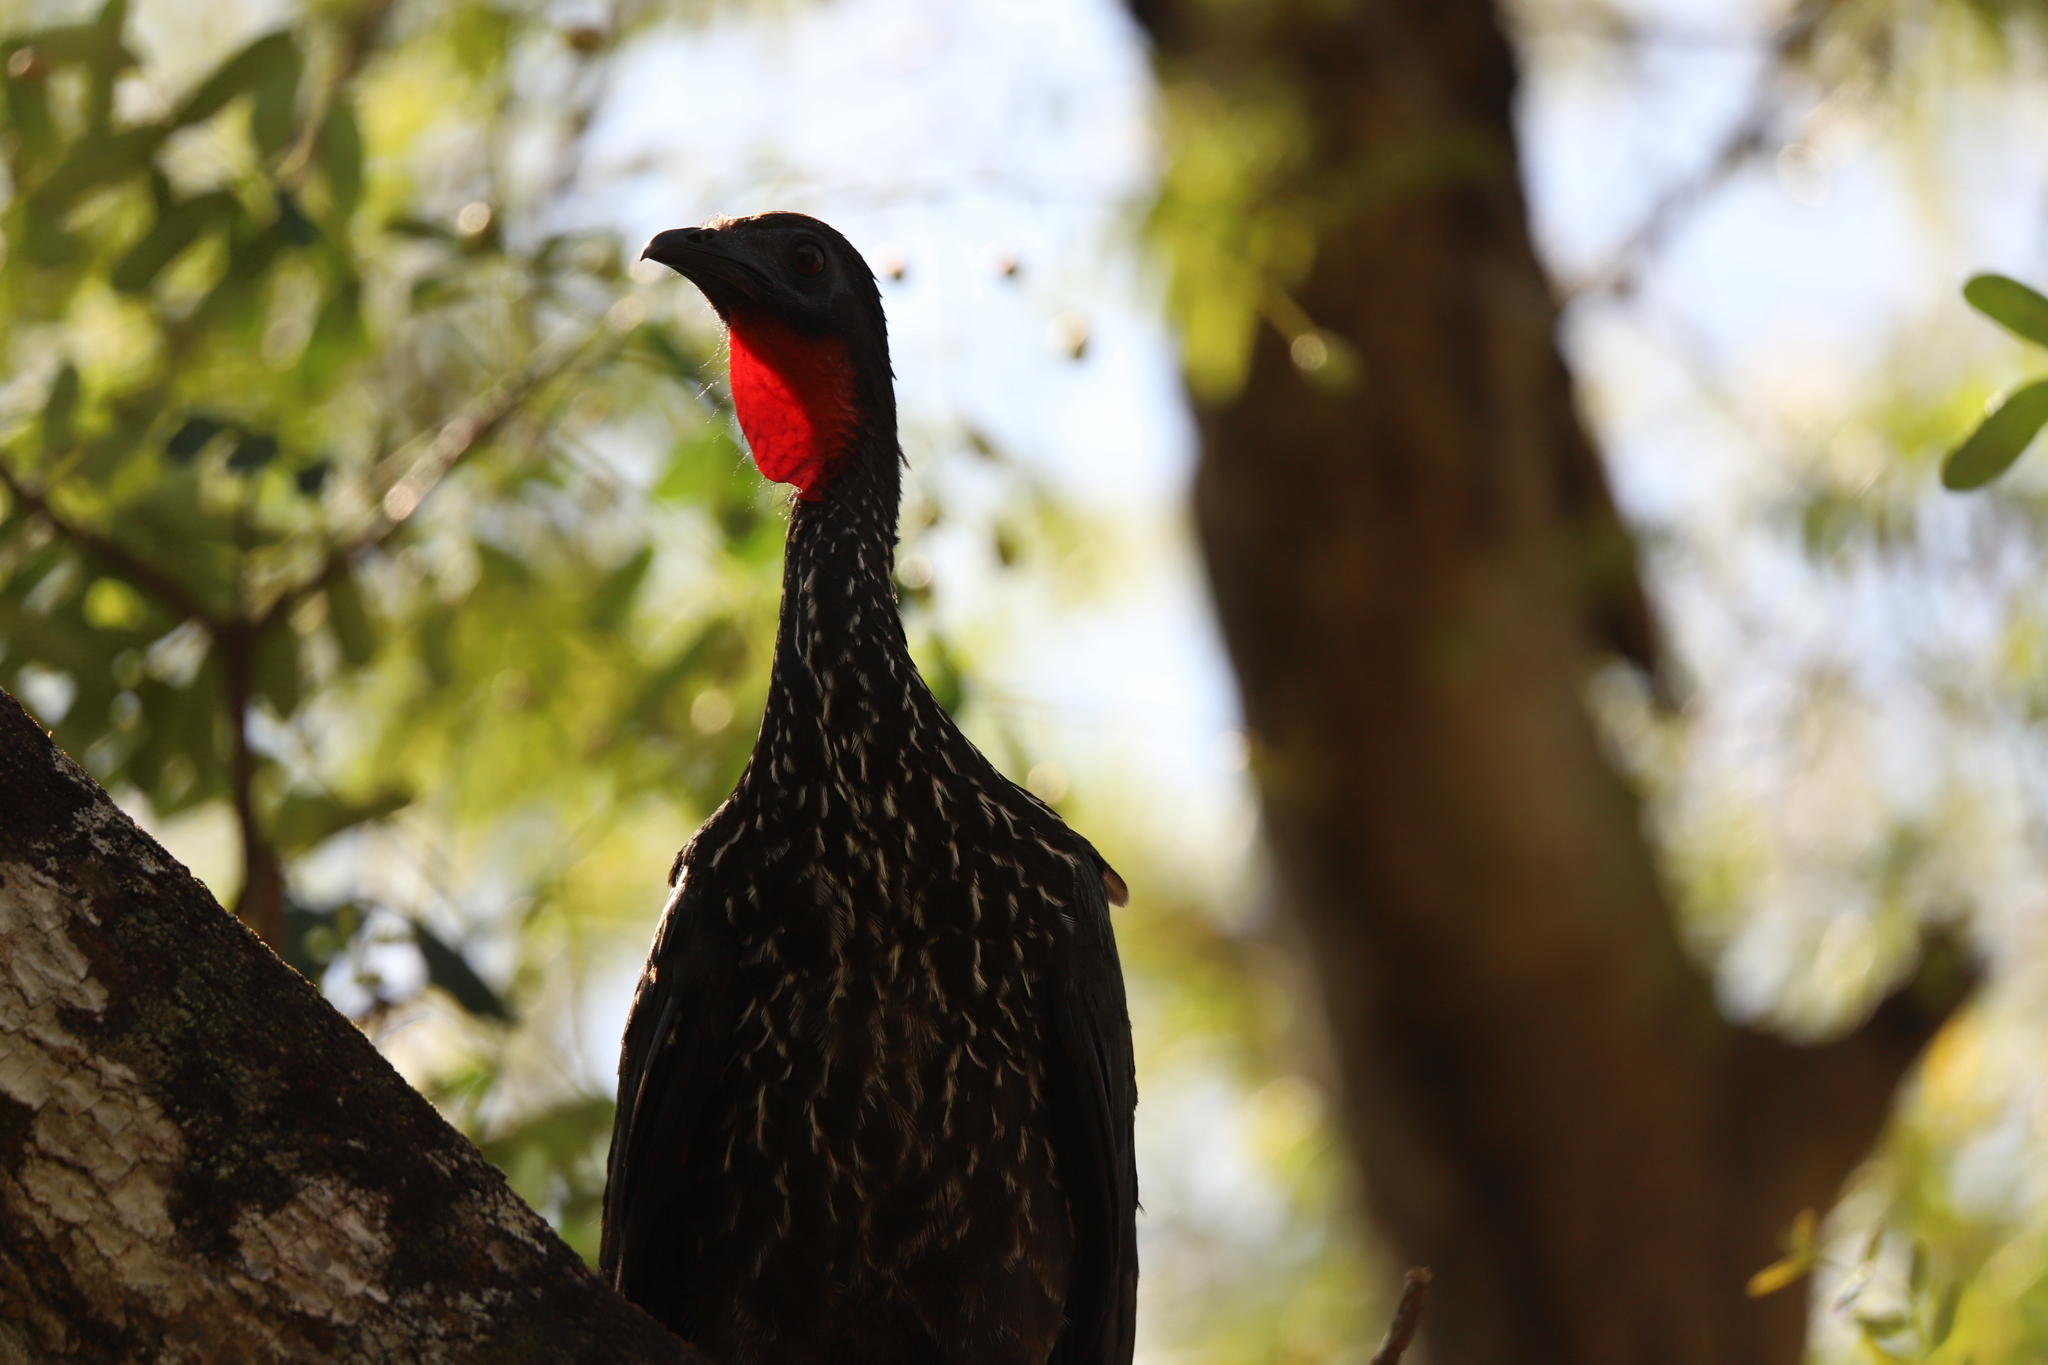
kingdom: Animalia
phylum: Chordata
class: Aves
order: Galliformes
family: Cracidae
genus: Penelope
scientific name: Penelope purpurascens
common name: Crested guan
